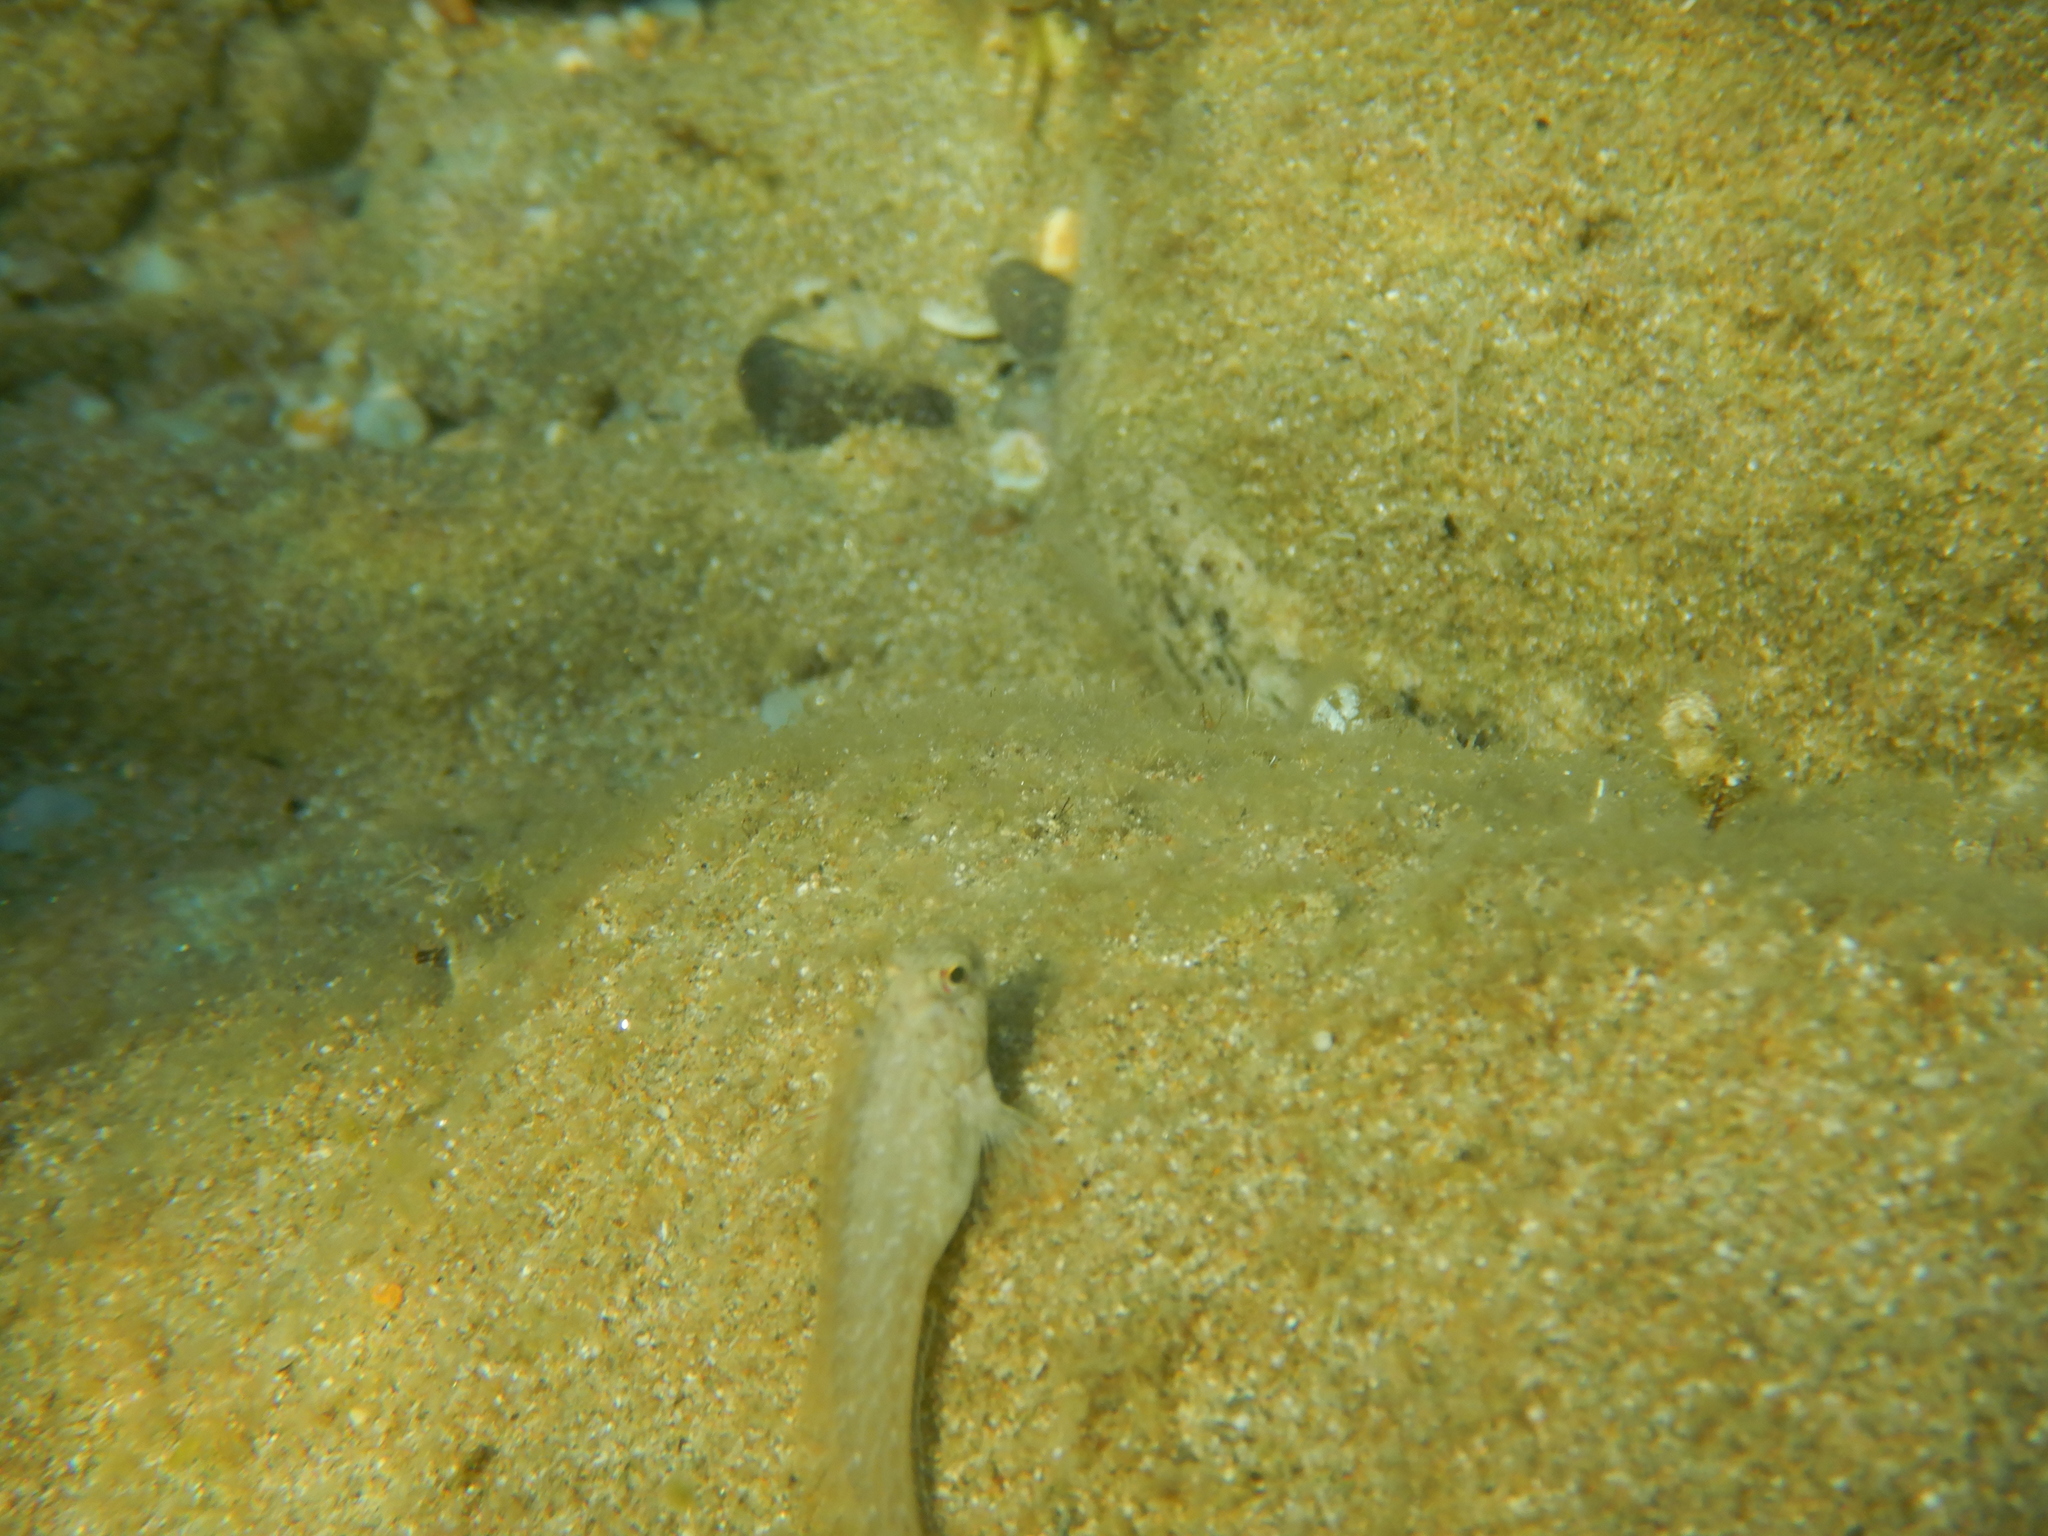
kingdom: Animalia
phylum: Chordata
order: Perciformes
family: Blenniidae
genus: Parablennius
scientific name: Parablennius sanguinolentus
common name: Black sea blenny
